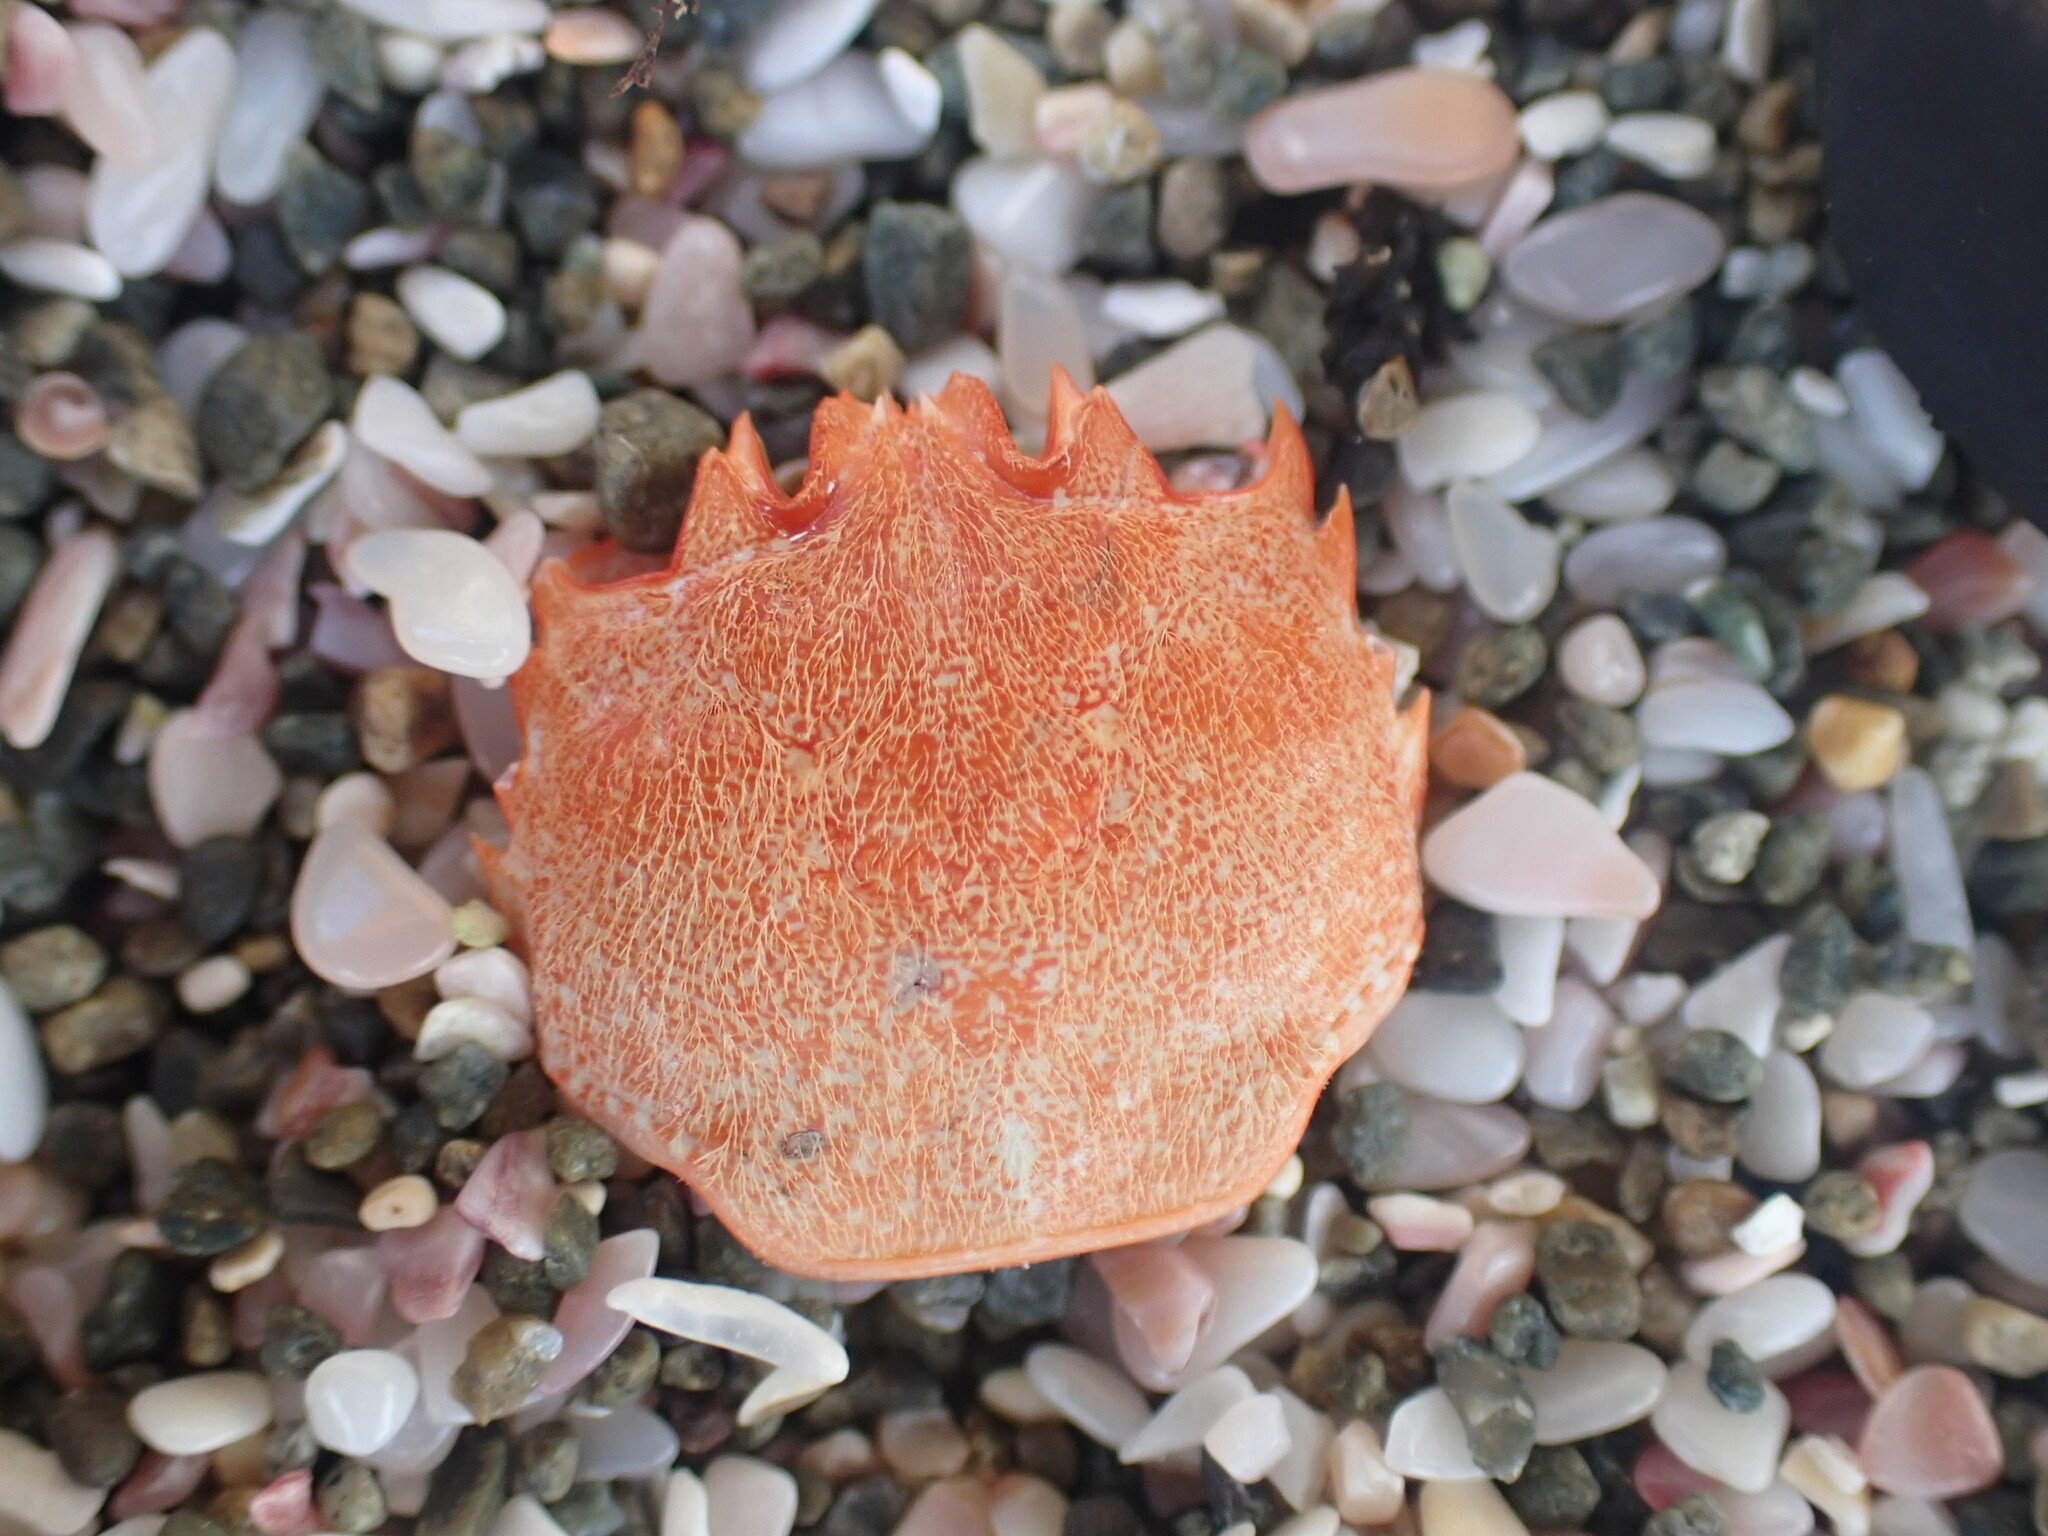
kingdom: Animalia
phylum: Arthropoda
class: Malacostraca
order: Decapoda
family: Plagusiidae
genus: Guinusia
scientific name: Guinusia chabrus
